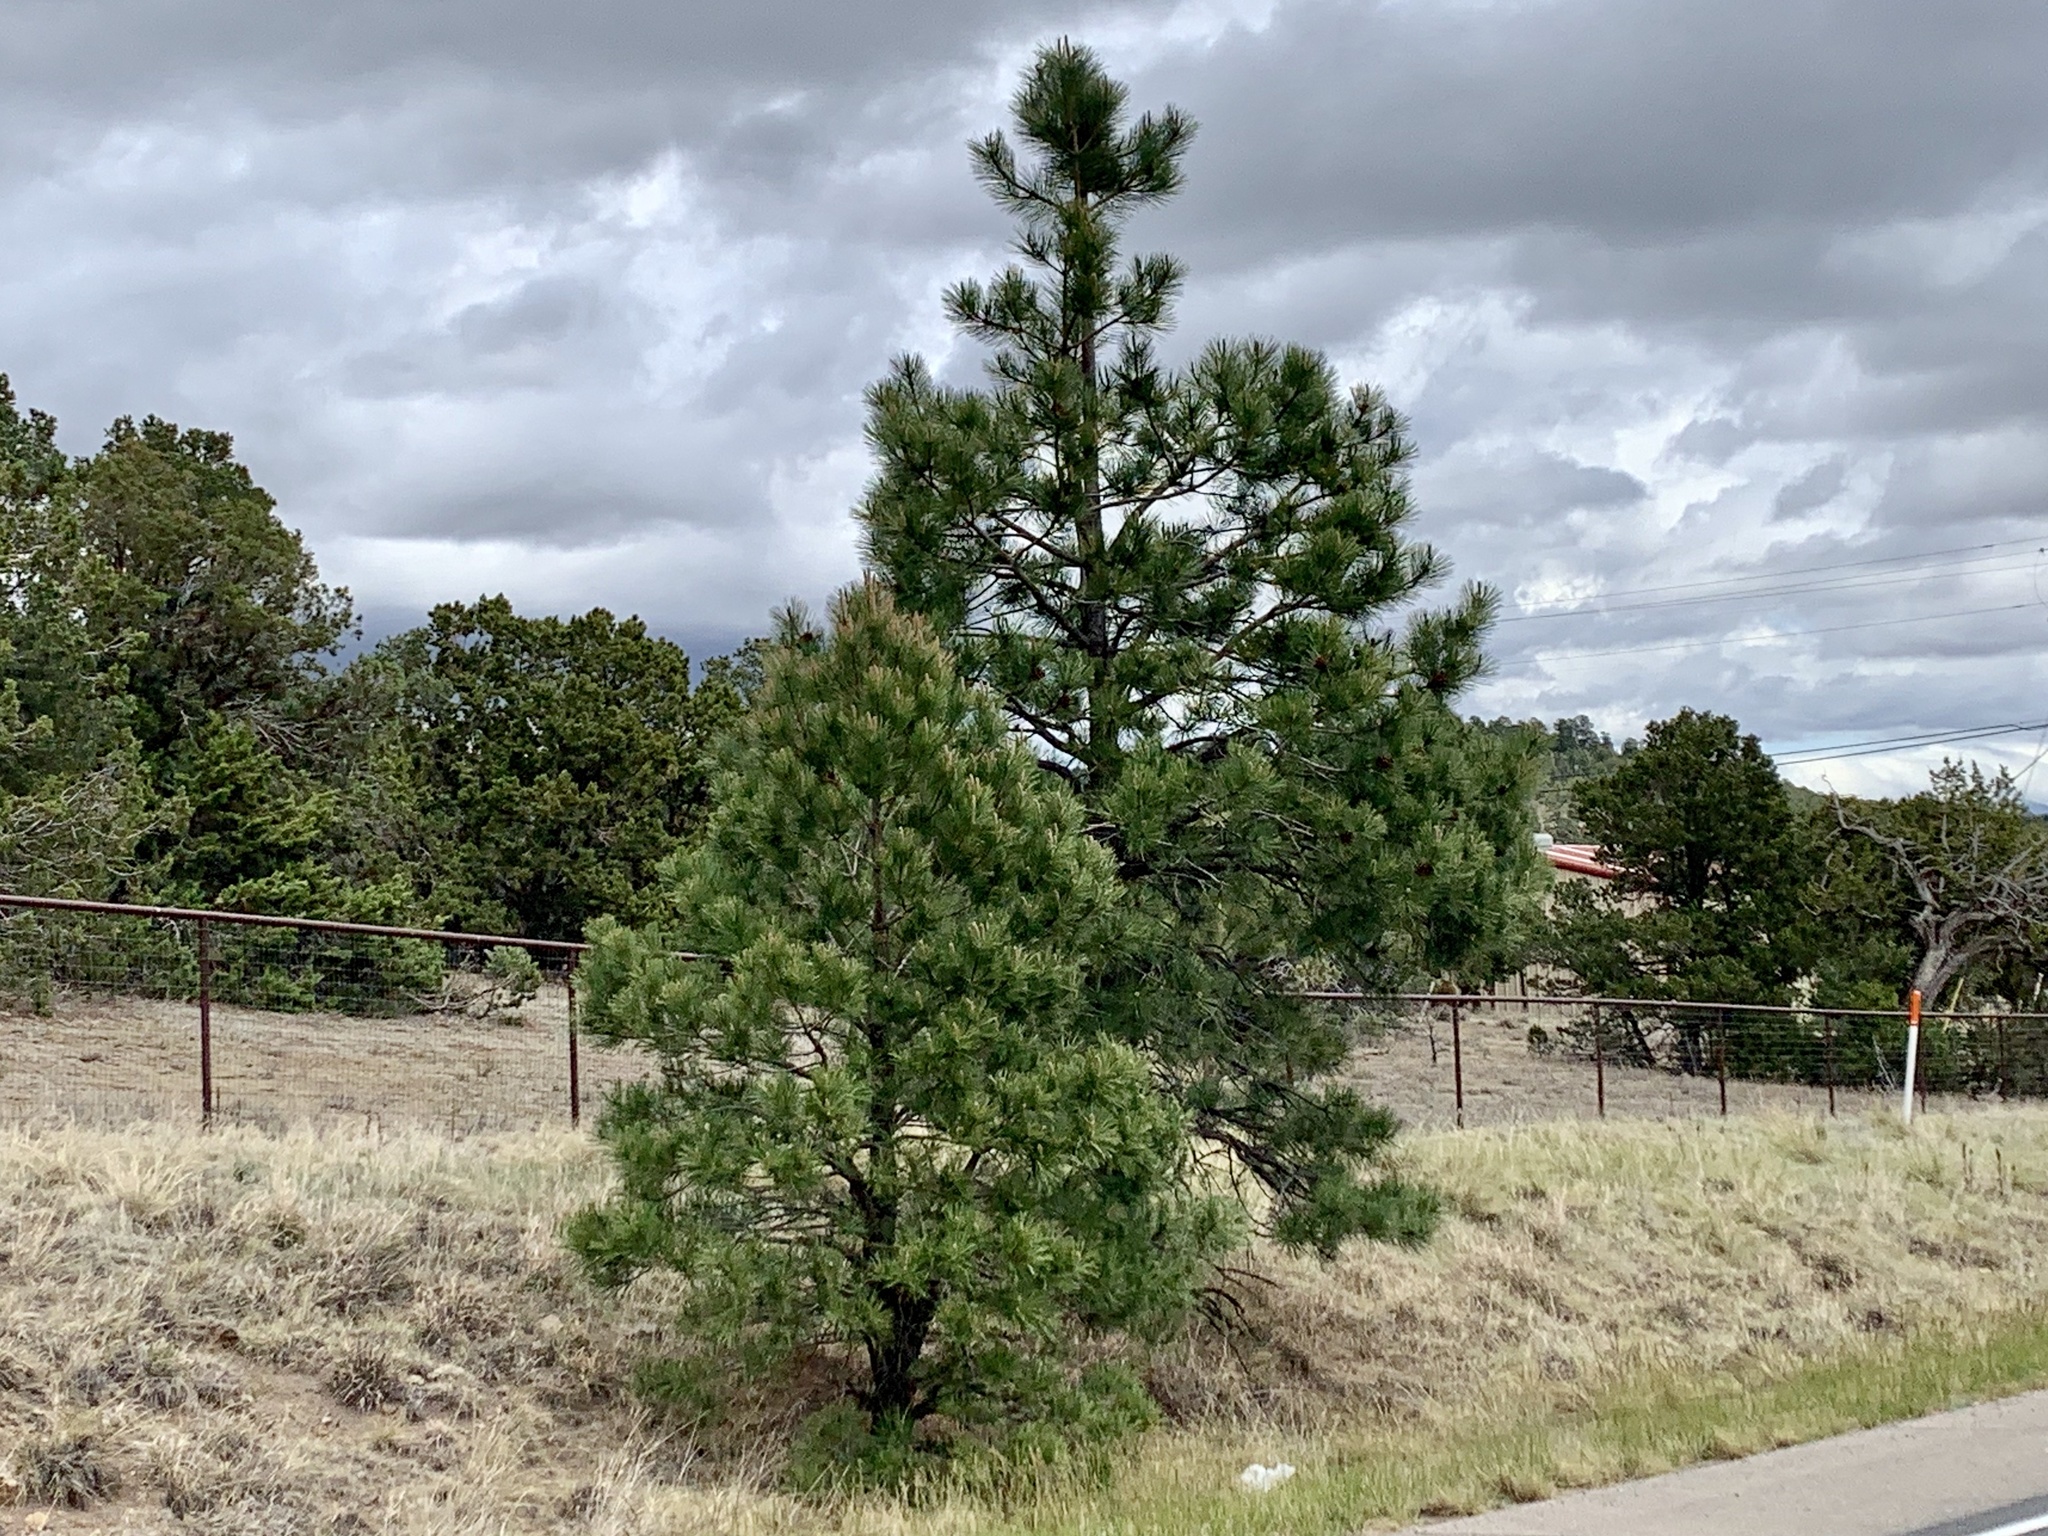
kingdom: Plantae
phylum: Tracheophyta
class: Pinopsida
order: Pinales
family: Pinaceae
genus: Pinus
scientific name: Pinus ponderosa
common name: Western yellow-pine
